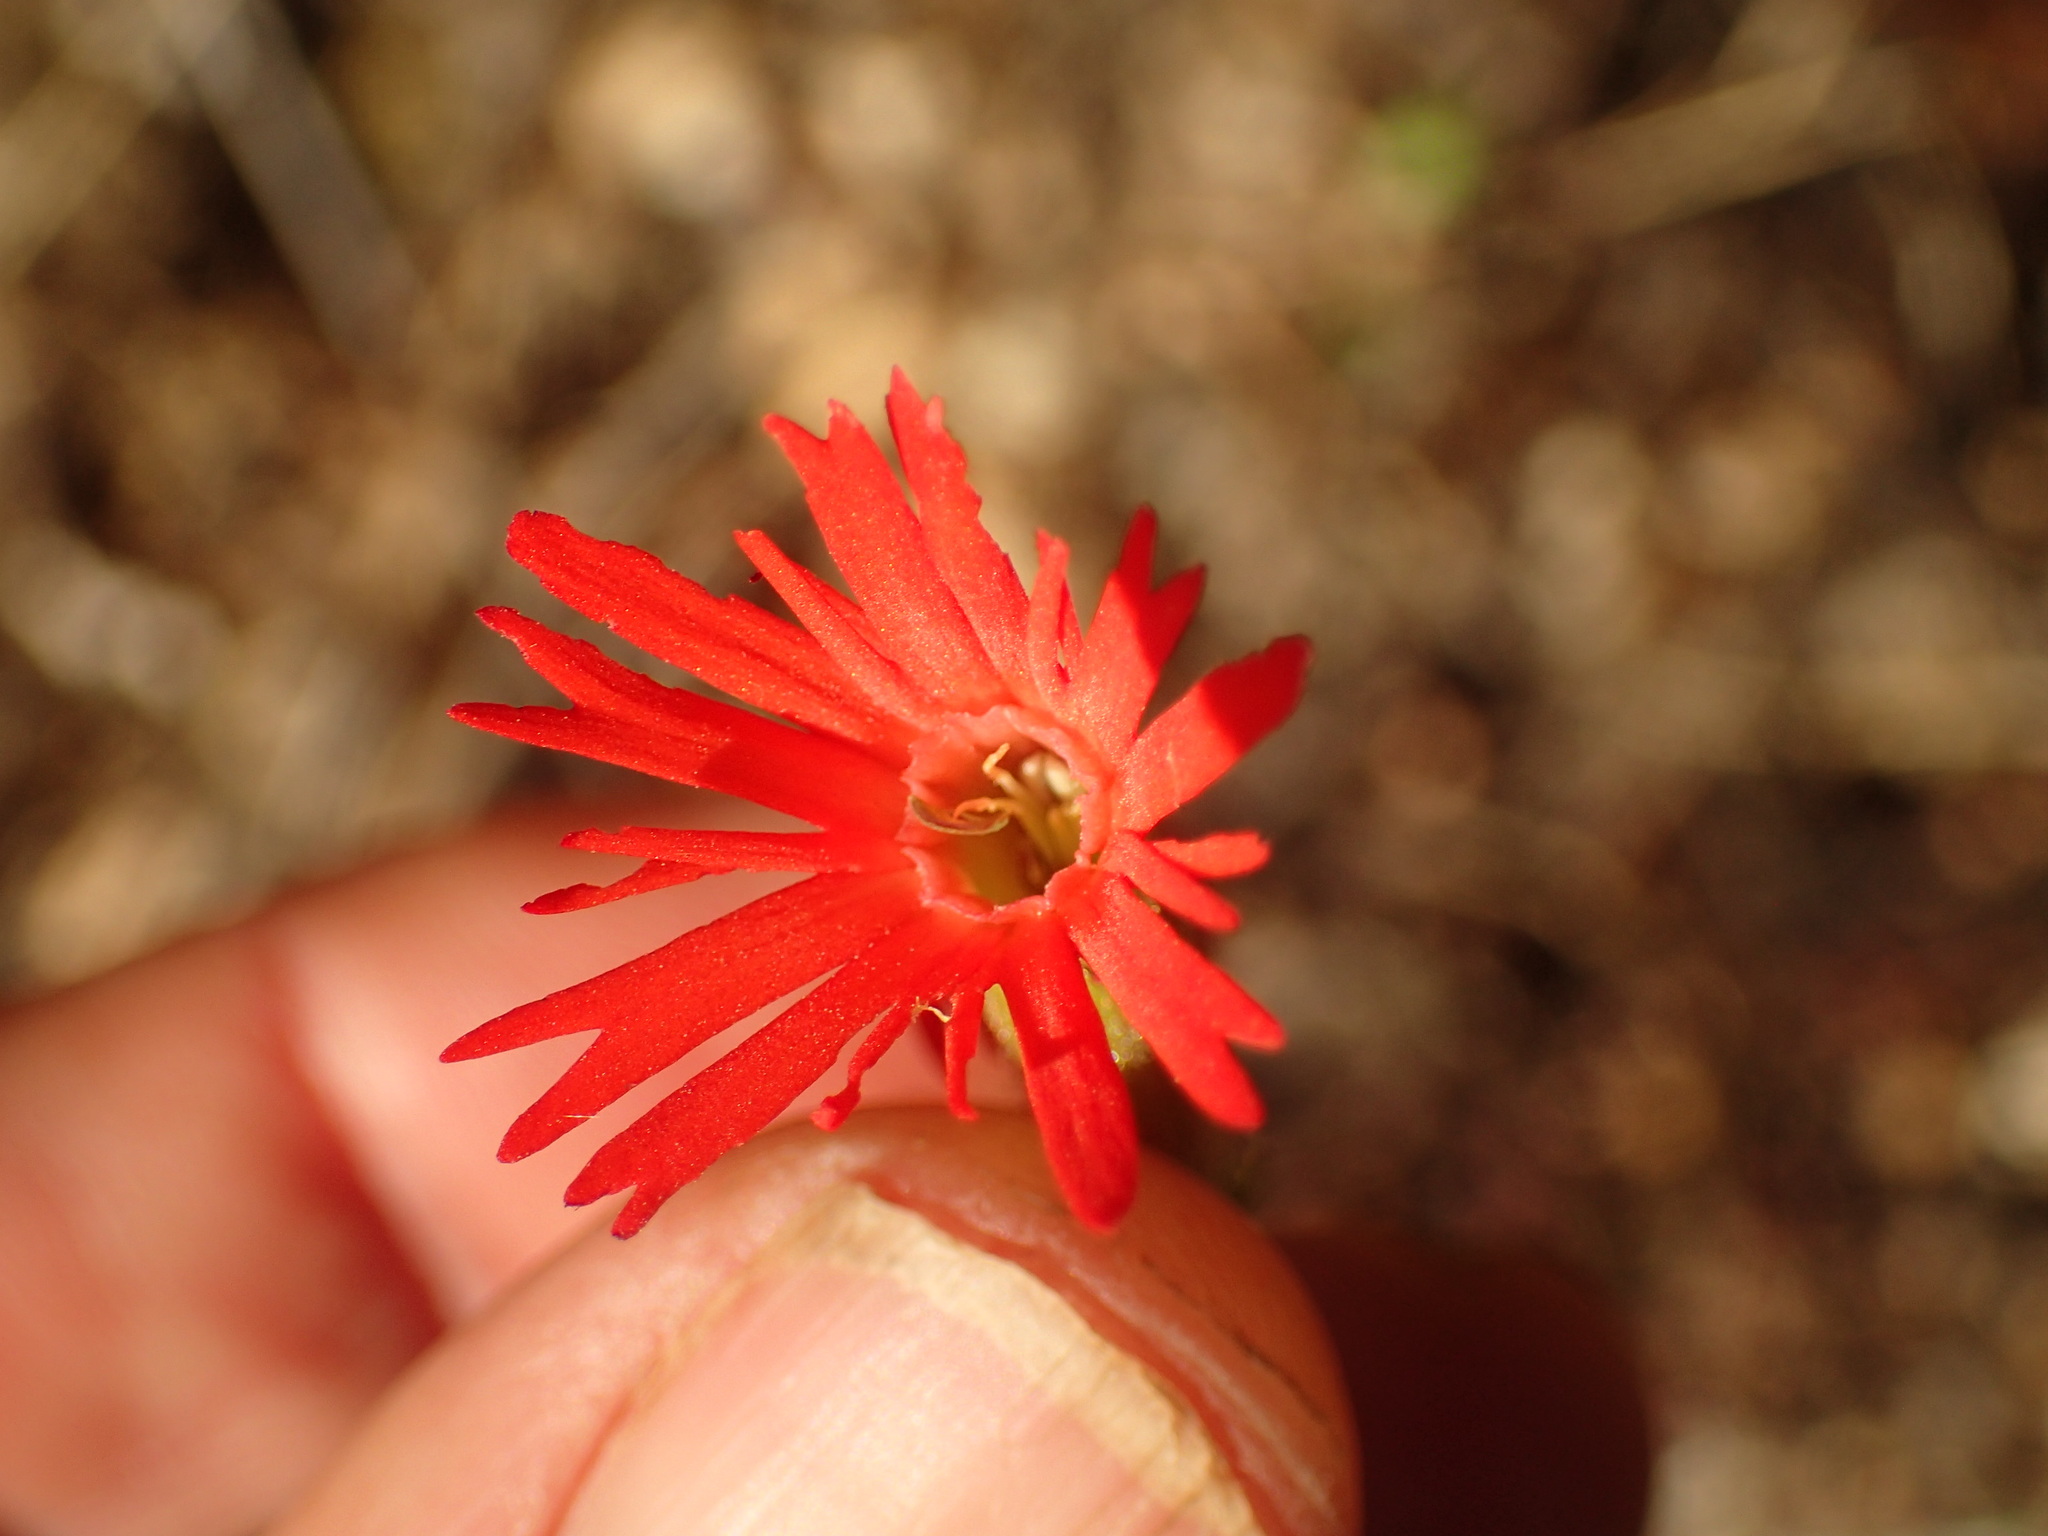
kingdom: Plantae
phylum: Tracheophyta
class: Magnoliopsida
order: Caryophyllales
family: Caryophyllaceae
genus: Silene
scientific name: Silene laciniata
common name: Indian-pink
